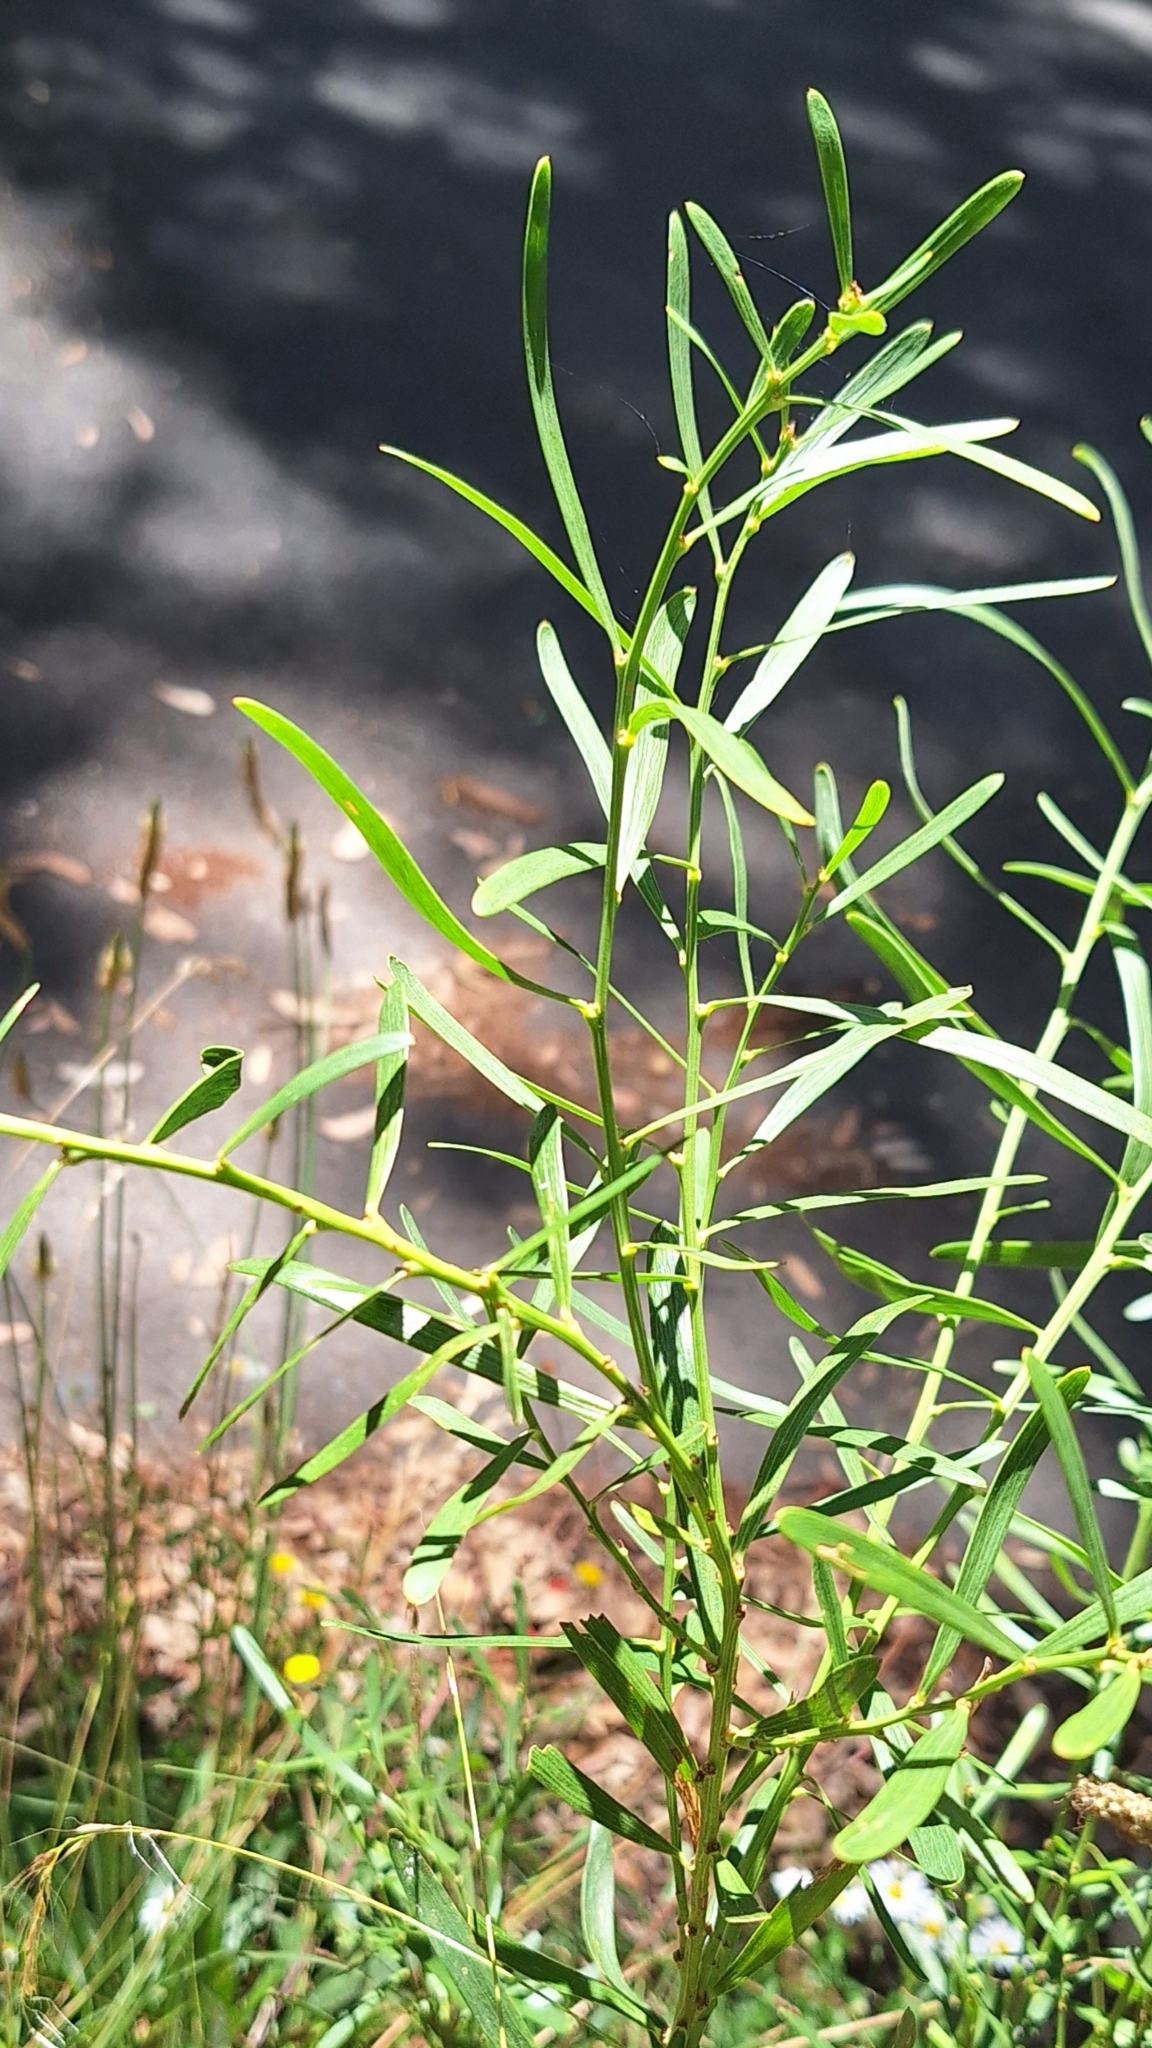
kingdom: Plantae
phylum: Tracheophyta
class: Magnoliopsida
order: Fabales
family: Fabaceae
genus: Daviesia
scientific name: Daviesia leptophylla
